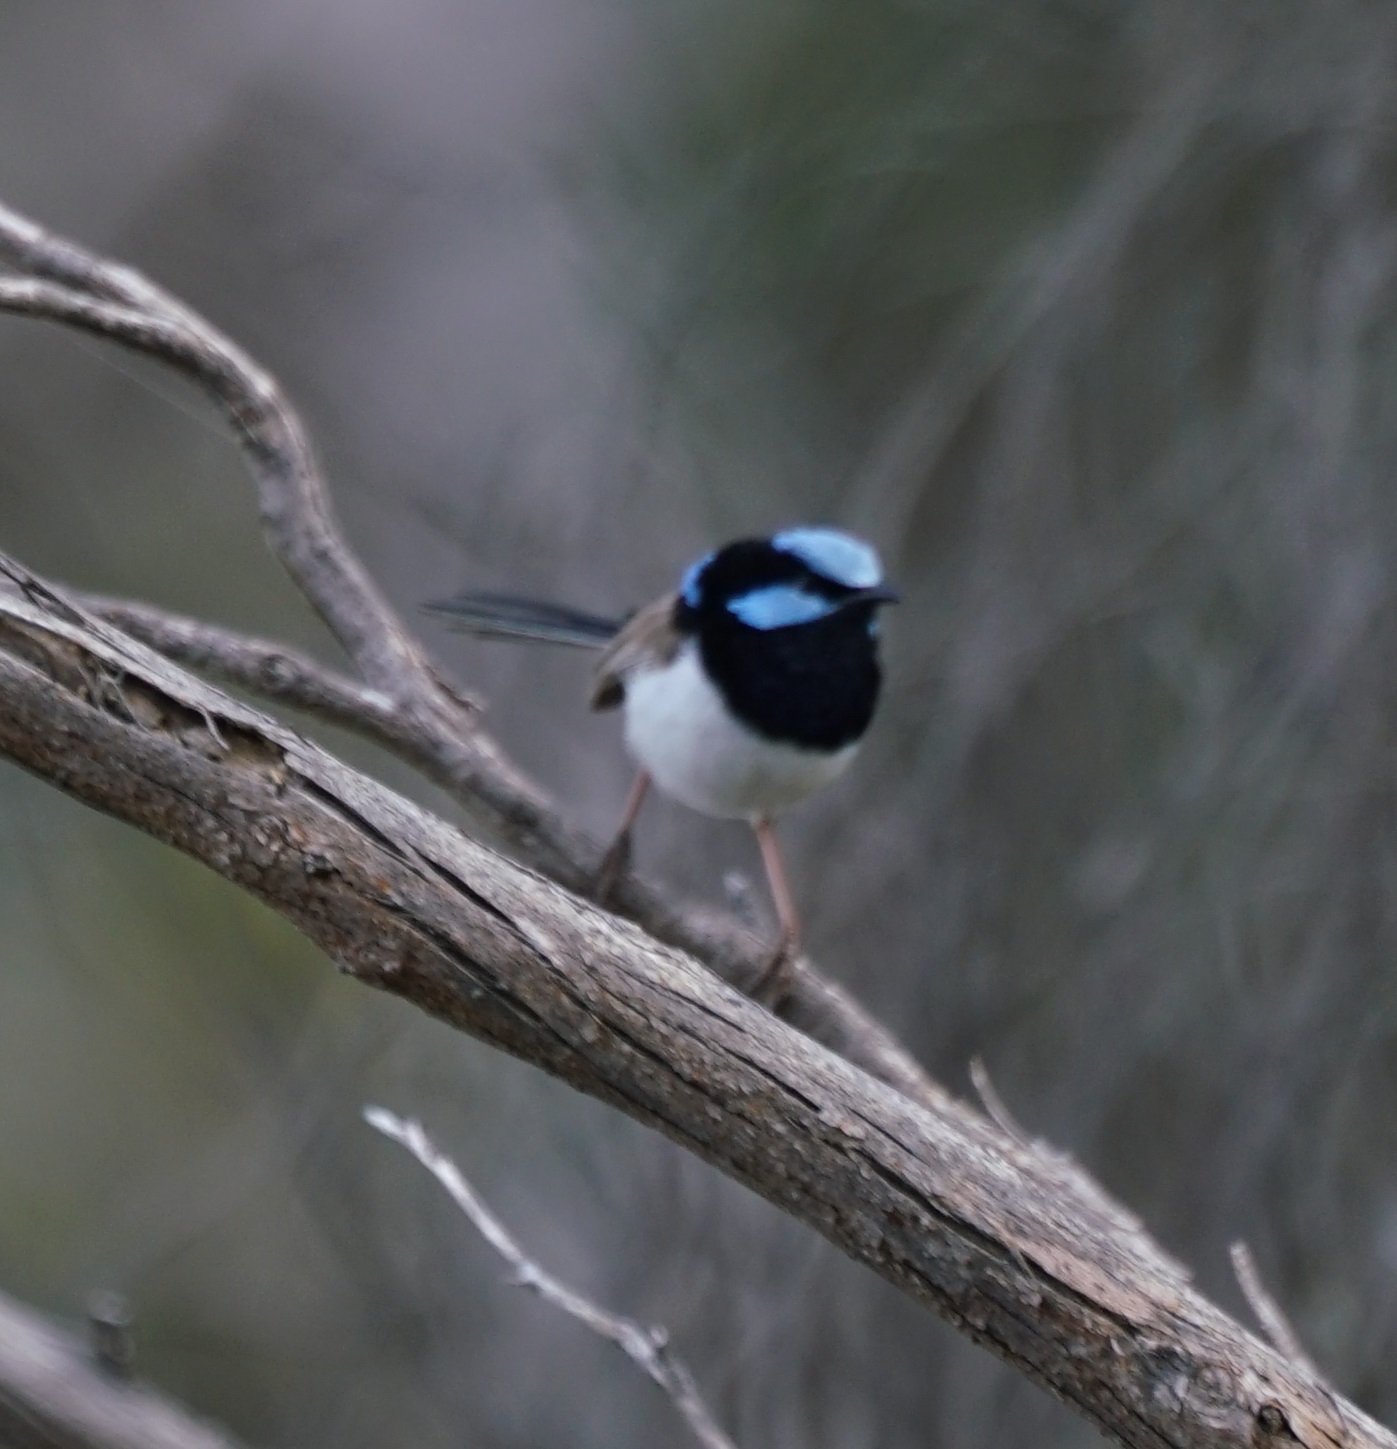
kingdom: Animalia
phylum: Chordata
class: Aves
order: Passeriformes
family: Maluridae
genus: Malurus
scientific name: Malurus cyaneus
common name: Superb fairywren
